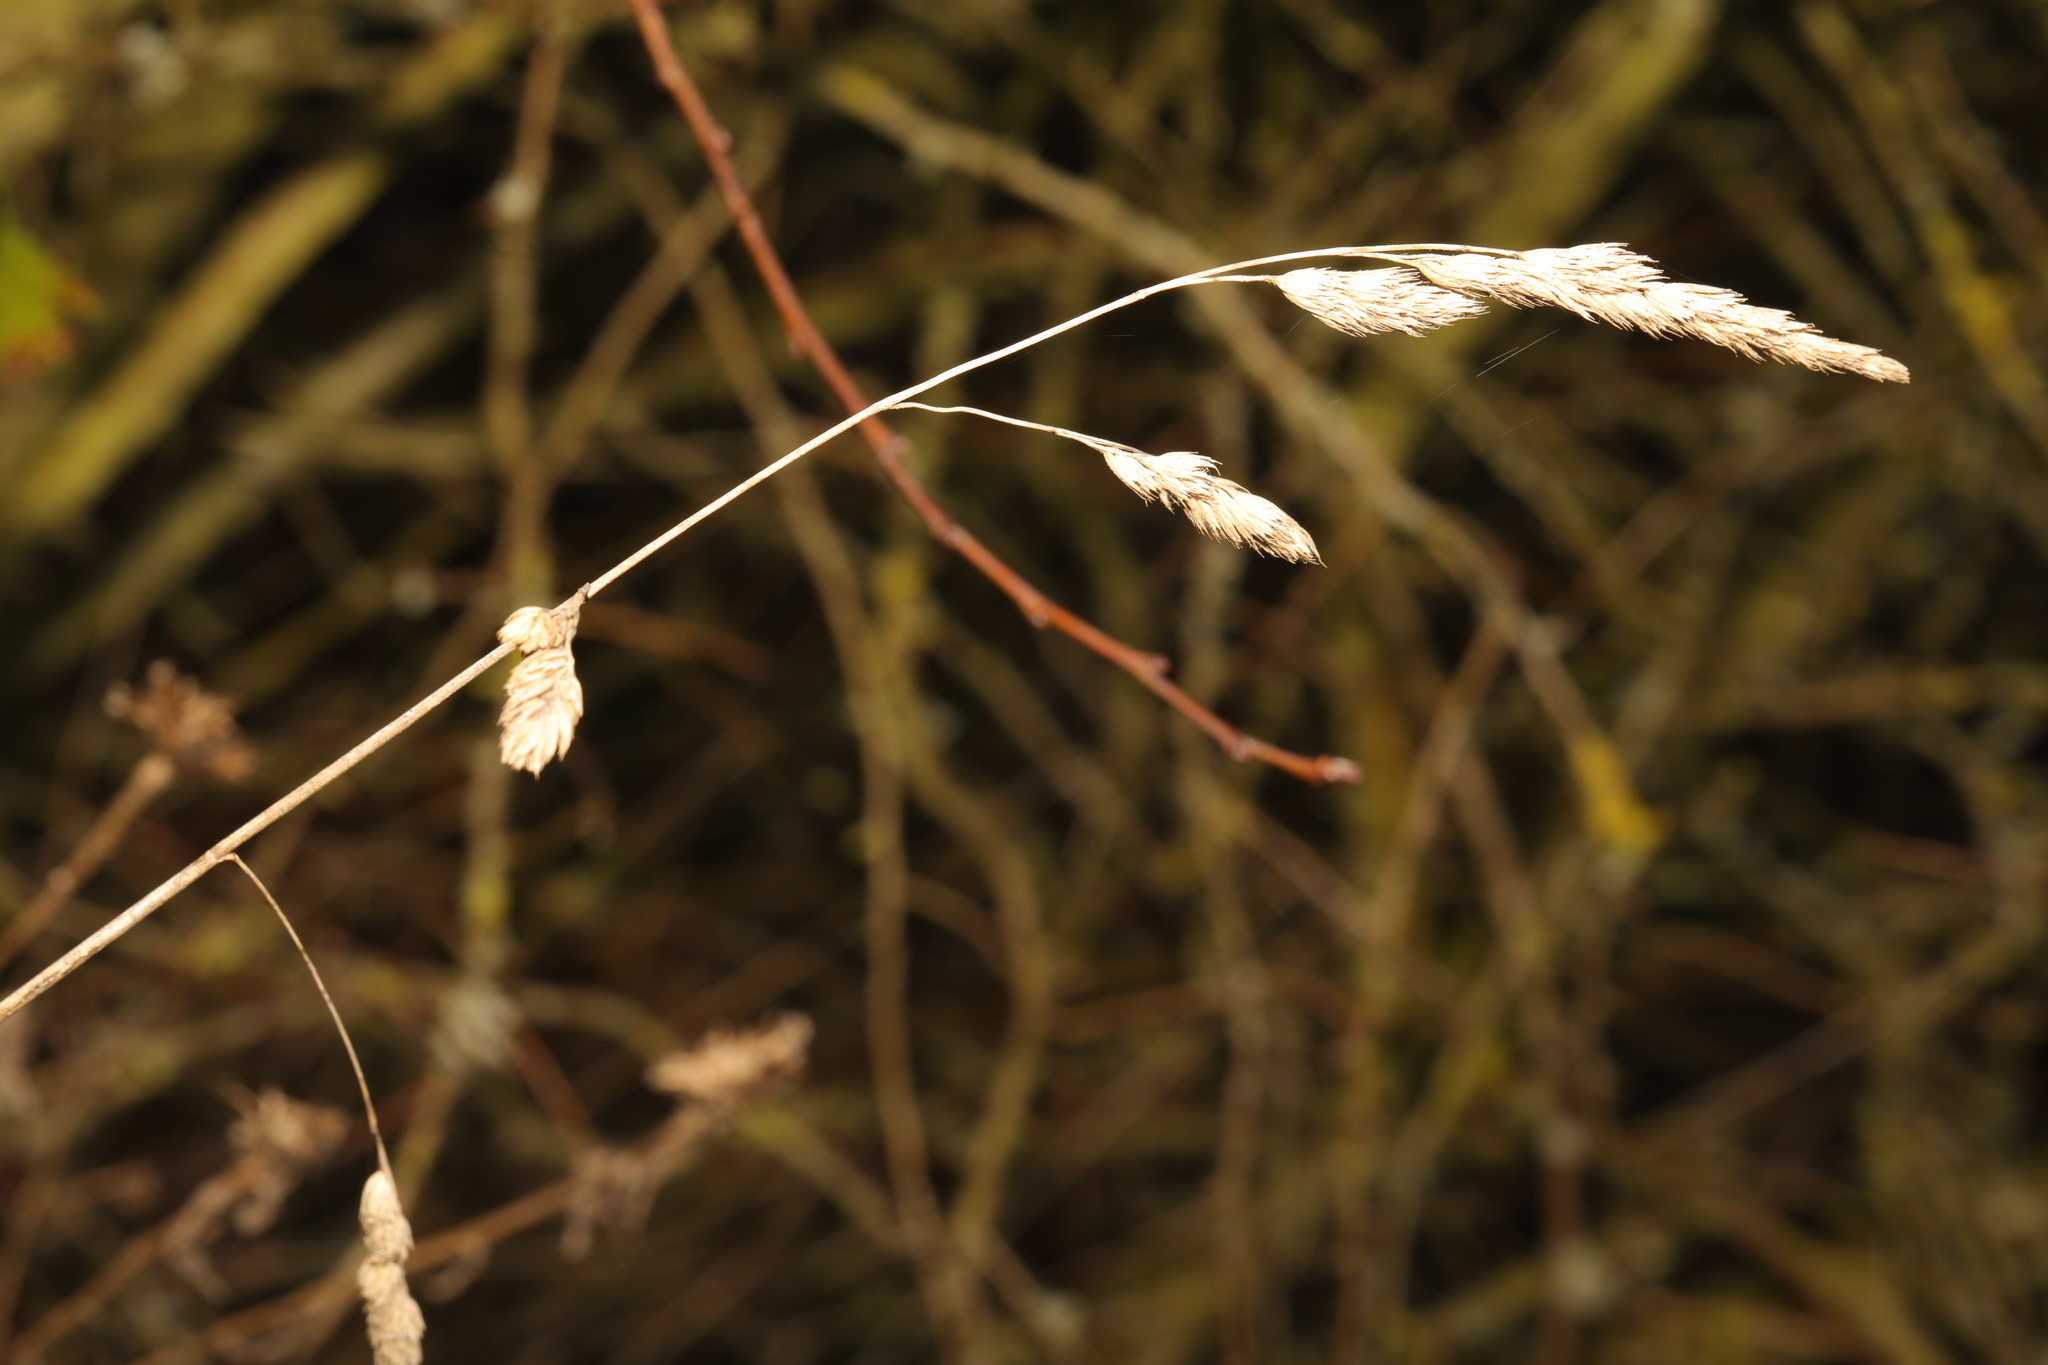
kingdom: Plantae
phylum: Tracheophyta
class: Liliopsida
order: Poales
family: Poaceae
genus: Dactylis
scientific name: Dactylis glomerata
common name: Orchardgrass
